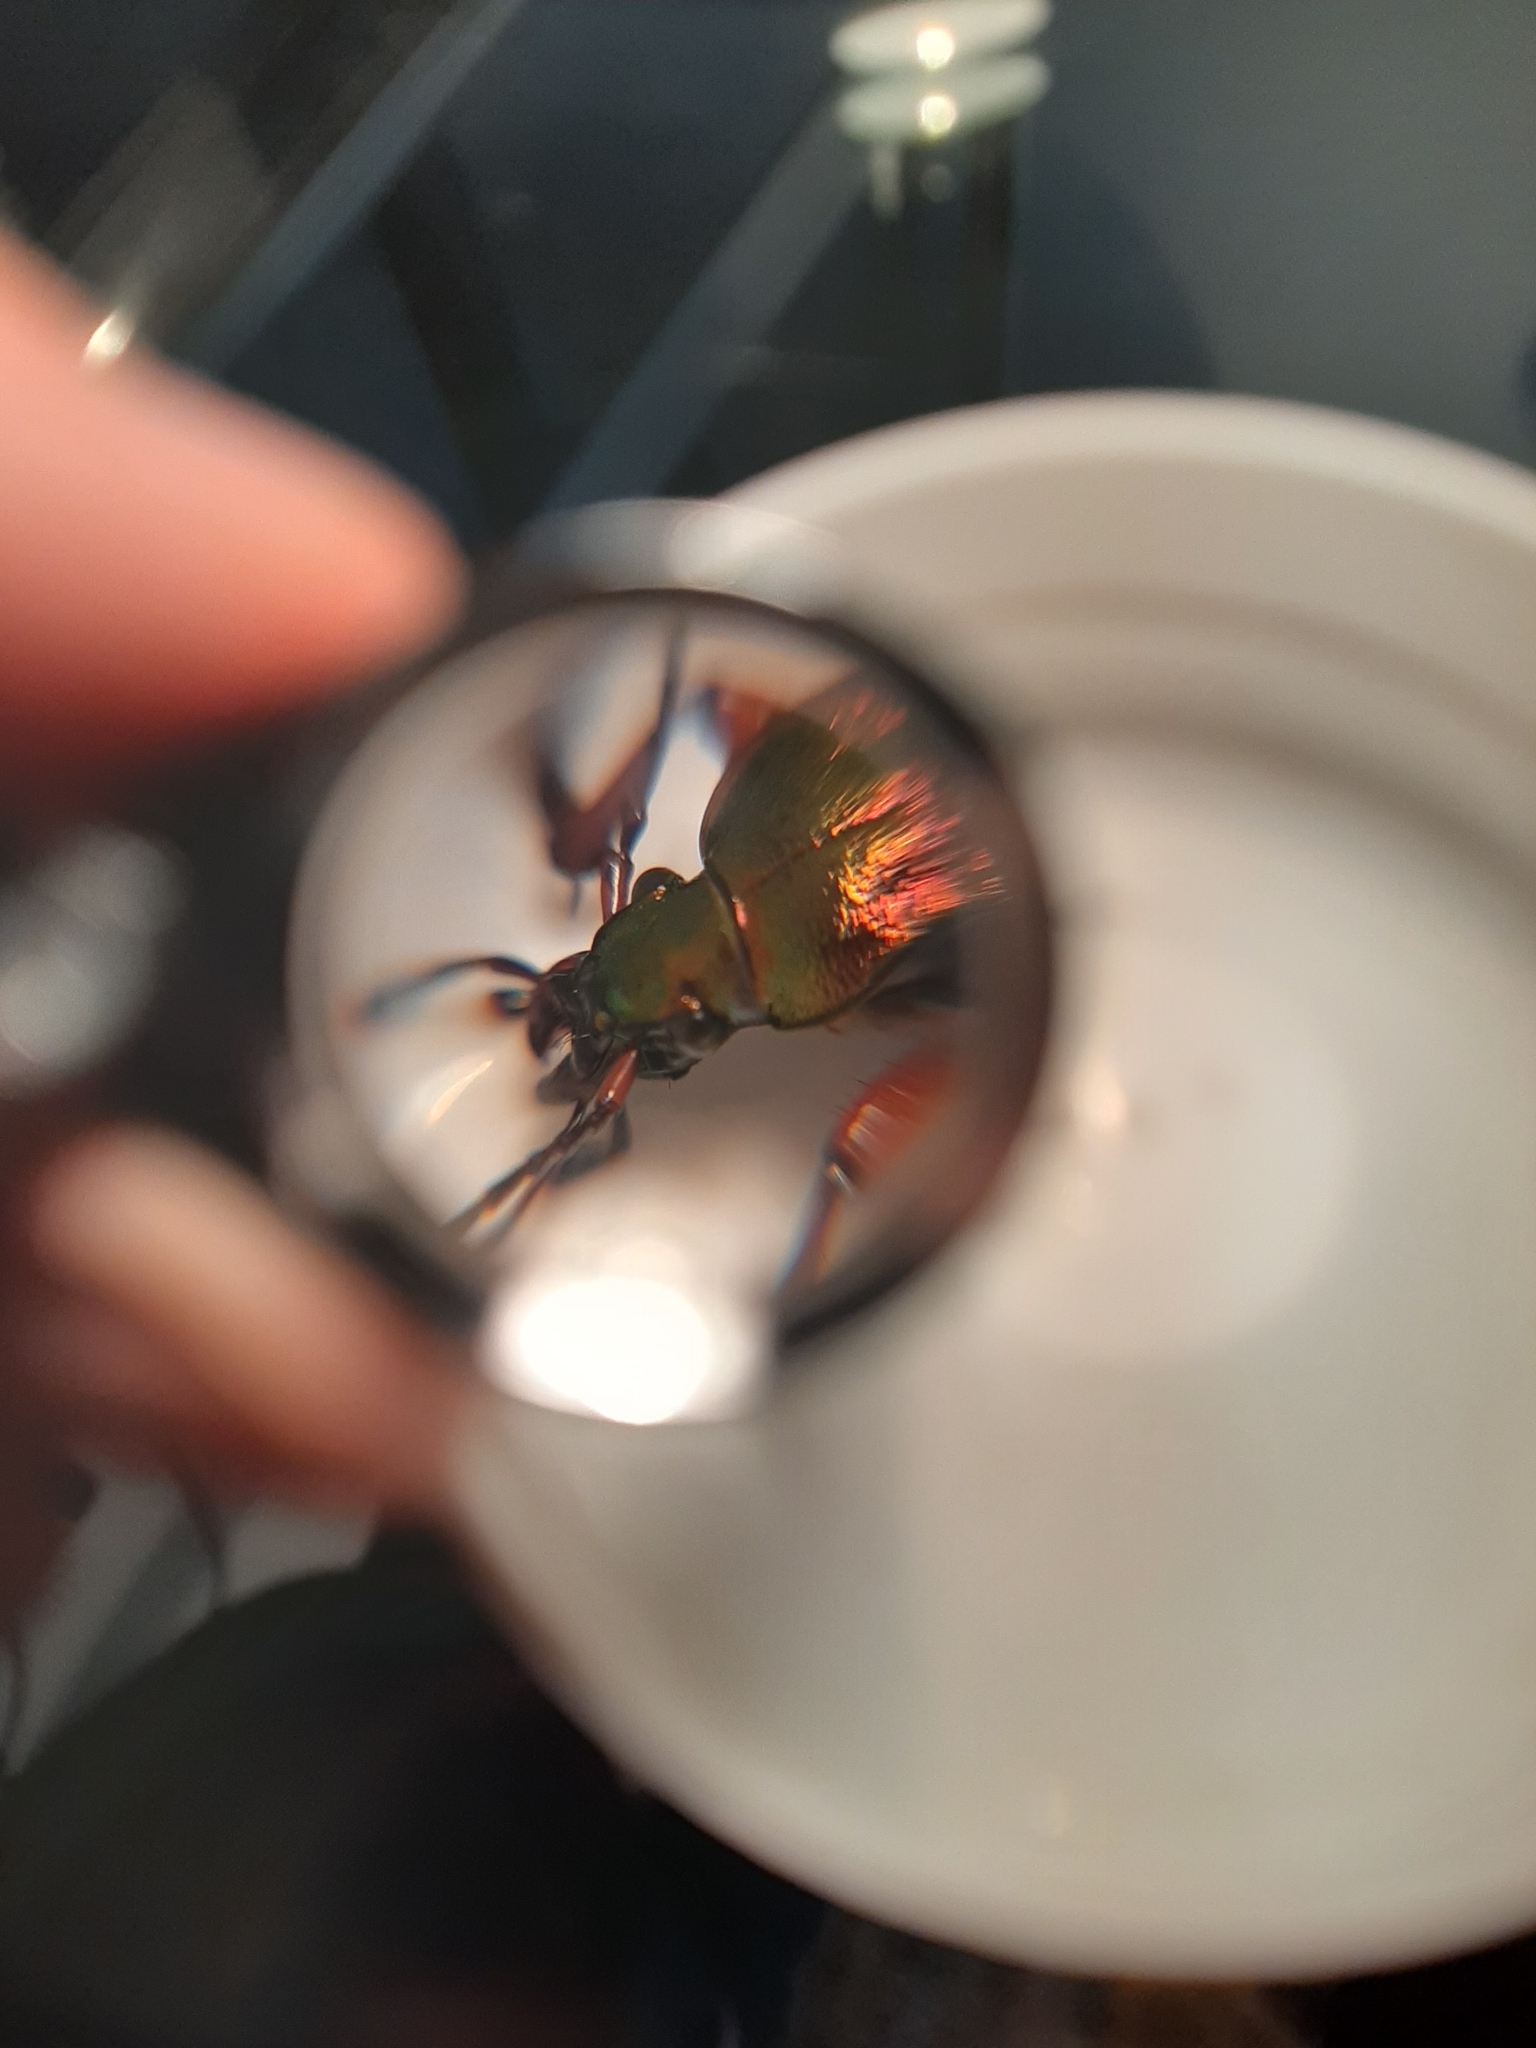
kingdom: Animalia
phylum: Arthropoda
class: Insecta
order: Coleoptera
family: Carabidae
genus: Carabus
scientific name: Carabus auronitens
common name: Carabus auronitens
